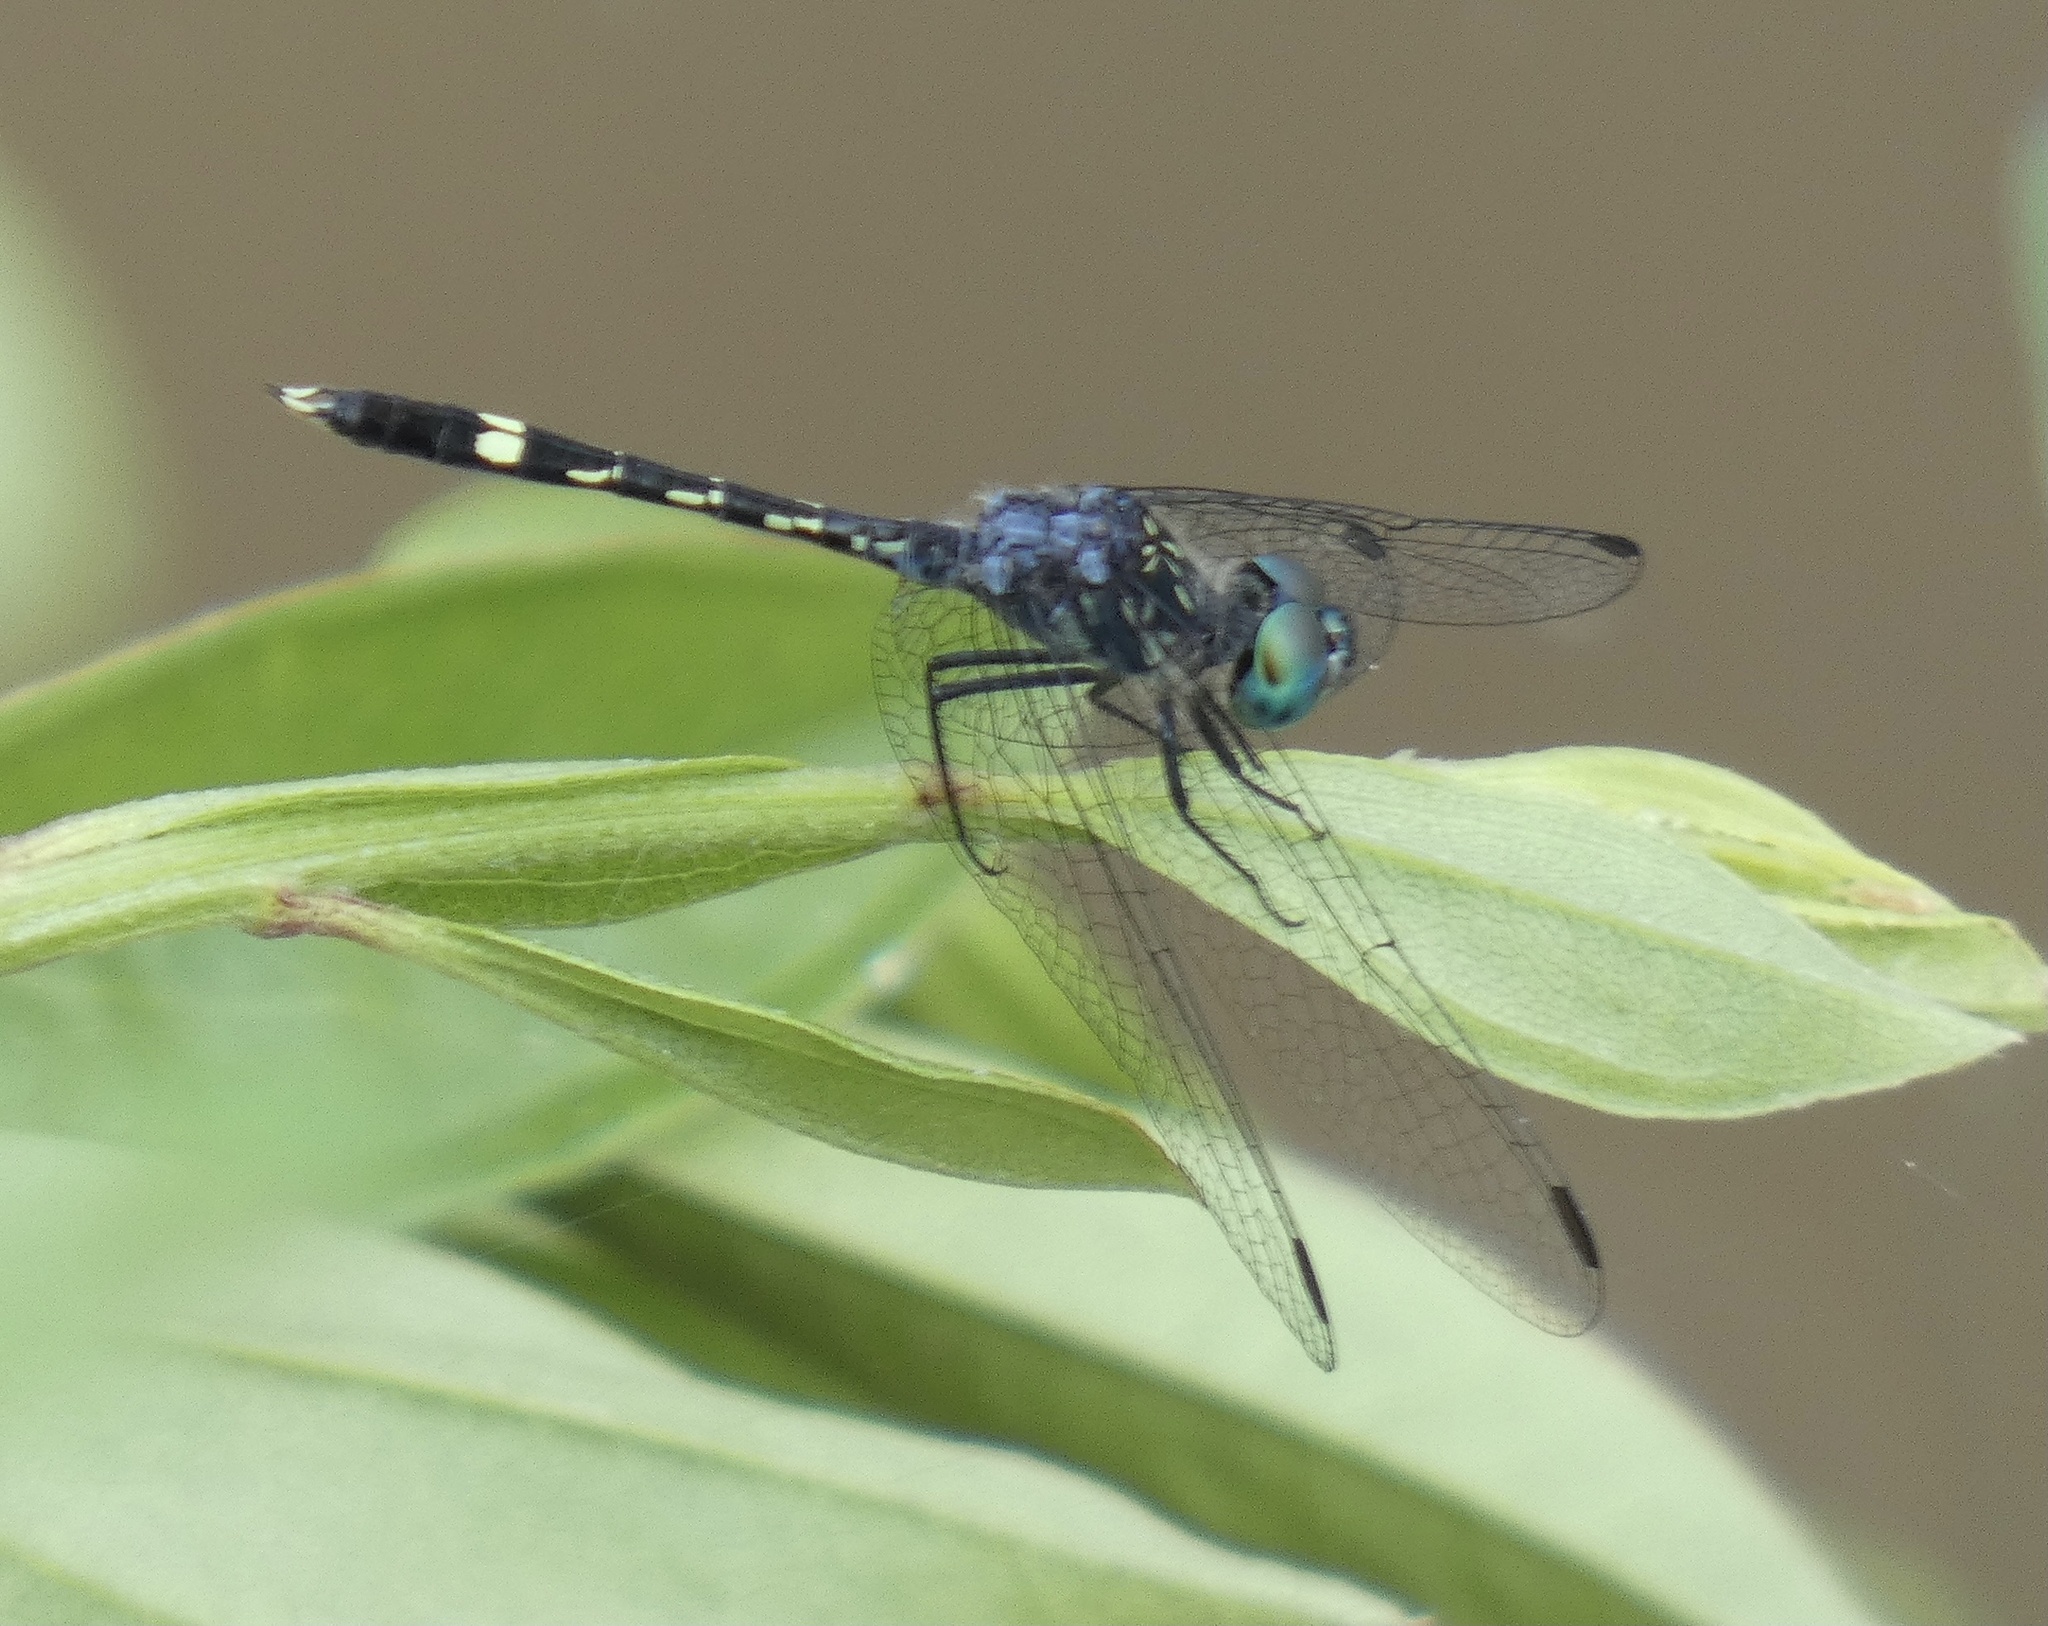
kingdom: Animalia
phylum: Arthropoda
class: Insecta
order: Odonata
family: Libellulidae
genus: Micrathyria
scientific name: Micrathyria hesperis
